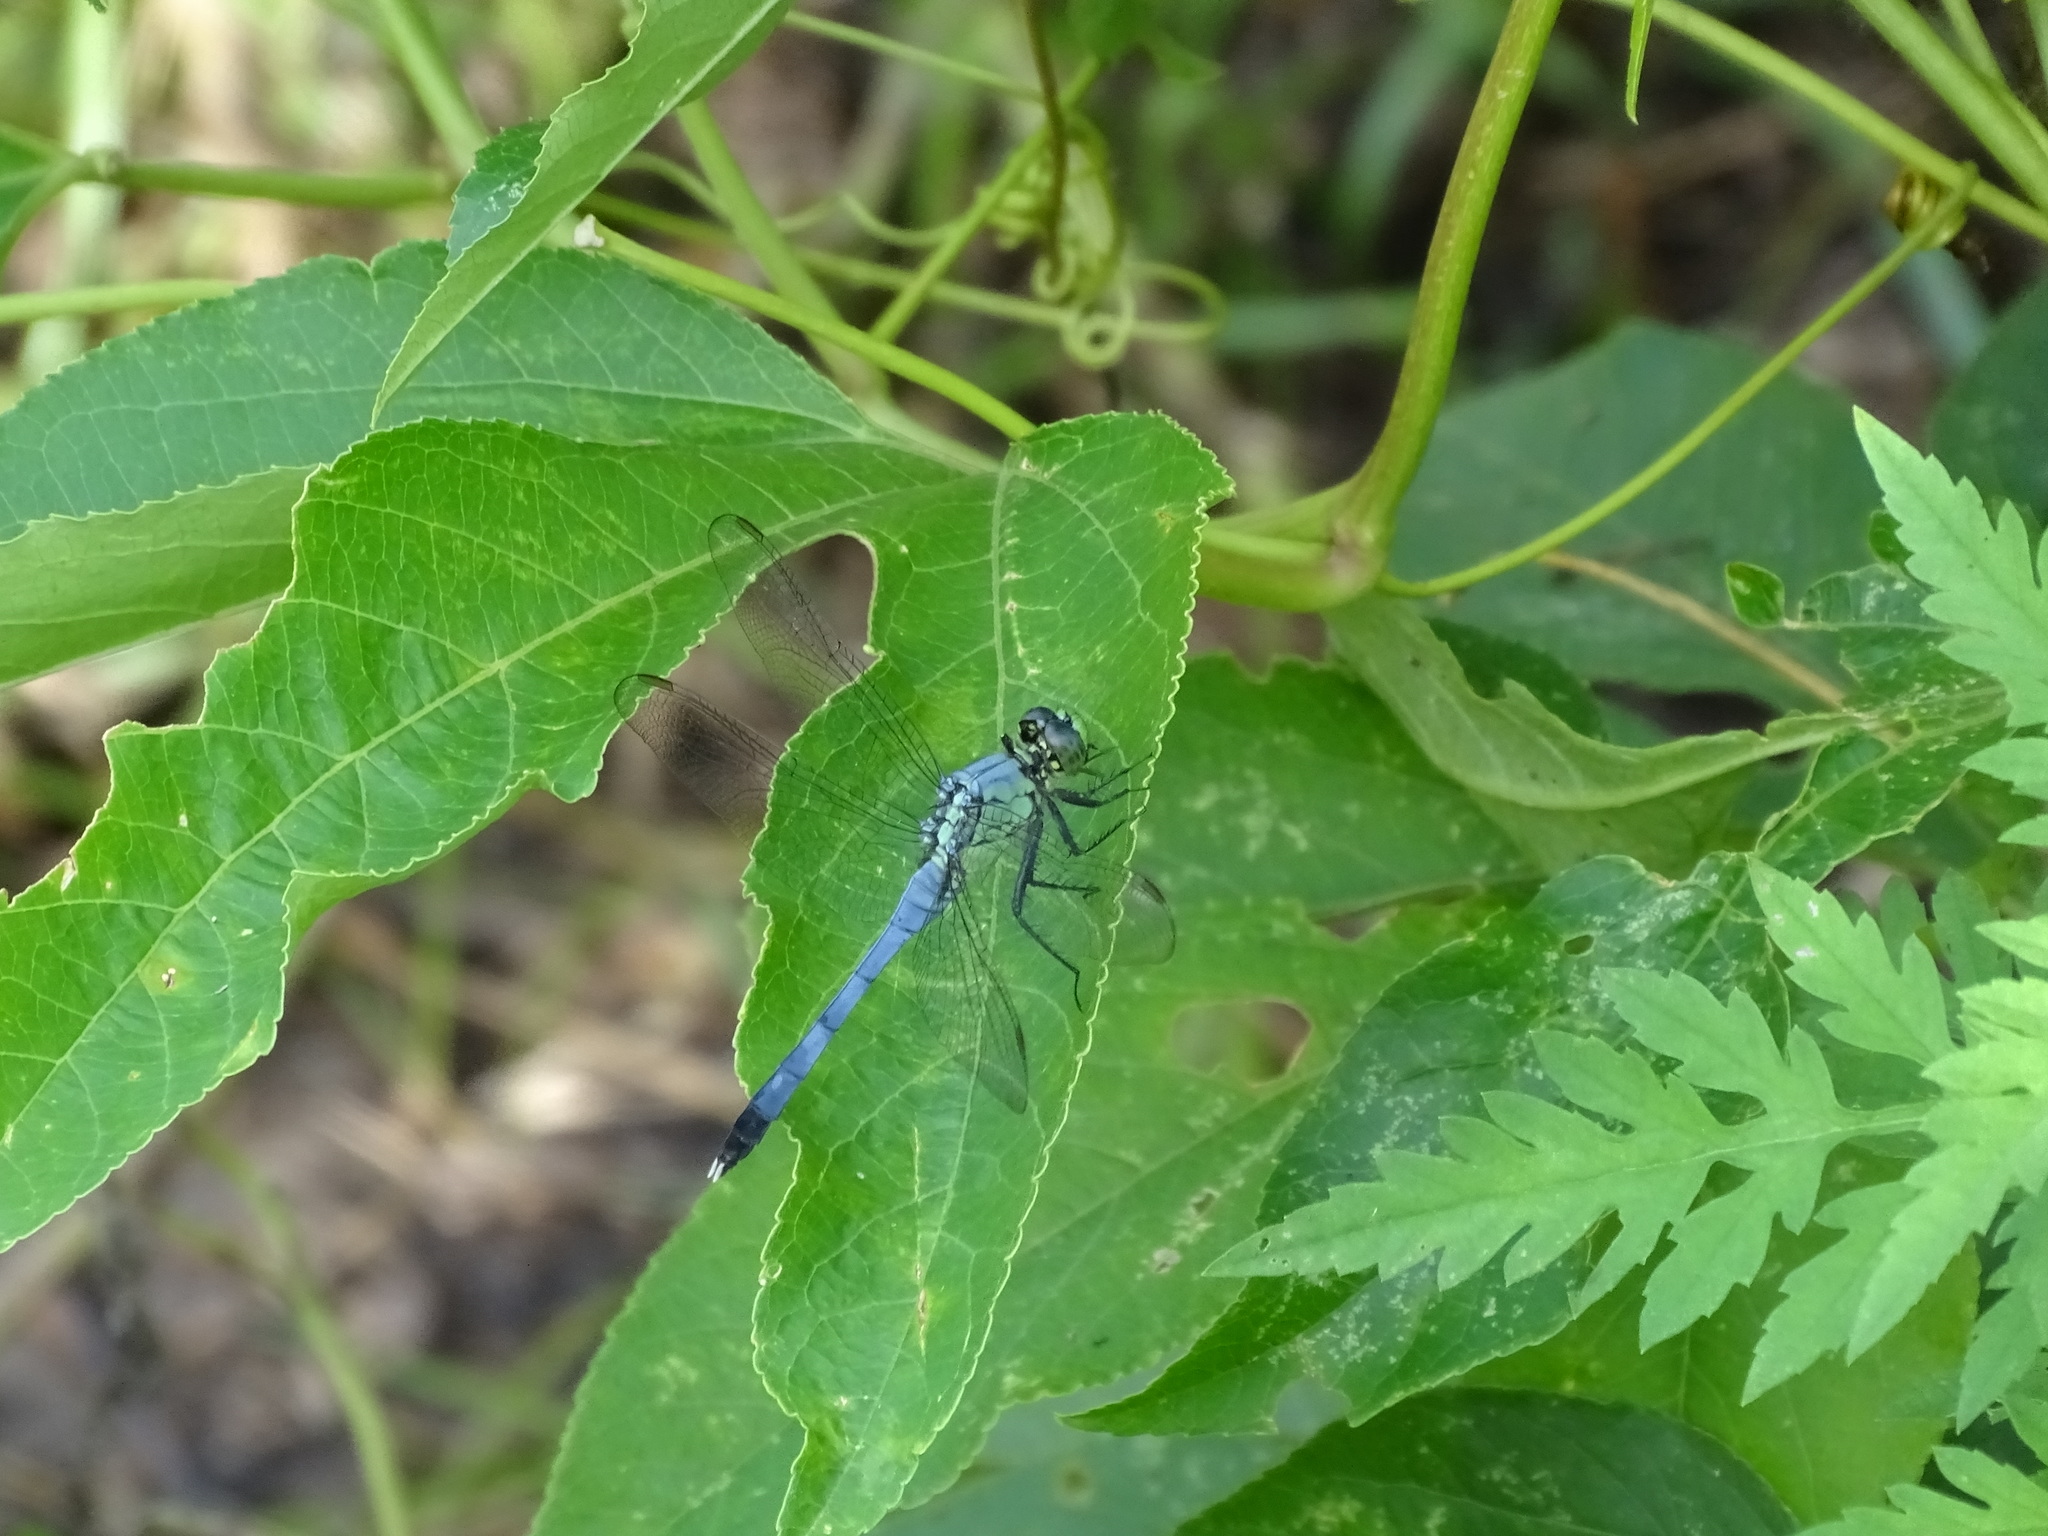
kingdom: Animalia
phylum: Arthropoda
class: Insecta
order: Odonata
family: Libellulidae
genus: Erythemis
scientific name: Erythemis simplicicollis
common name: Eastern pondhawk
